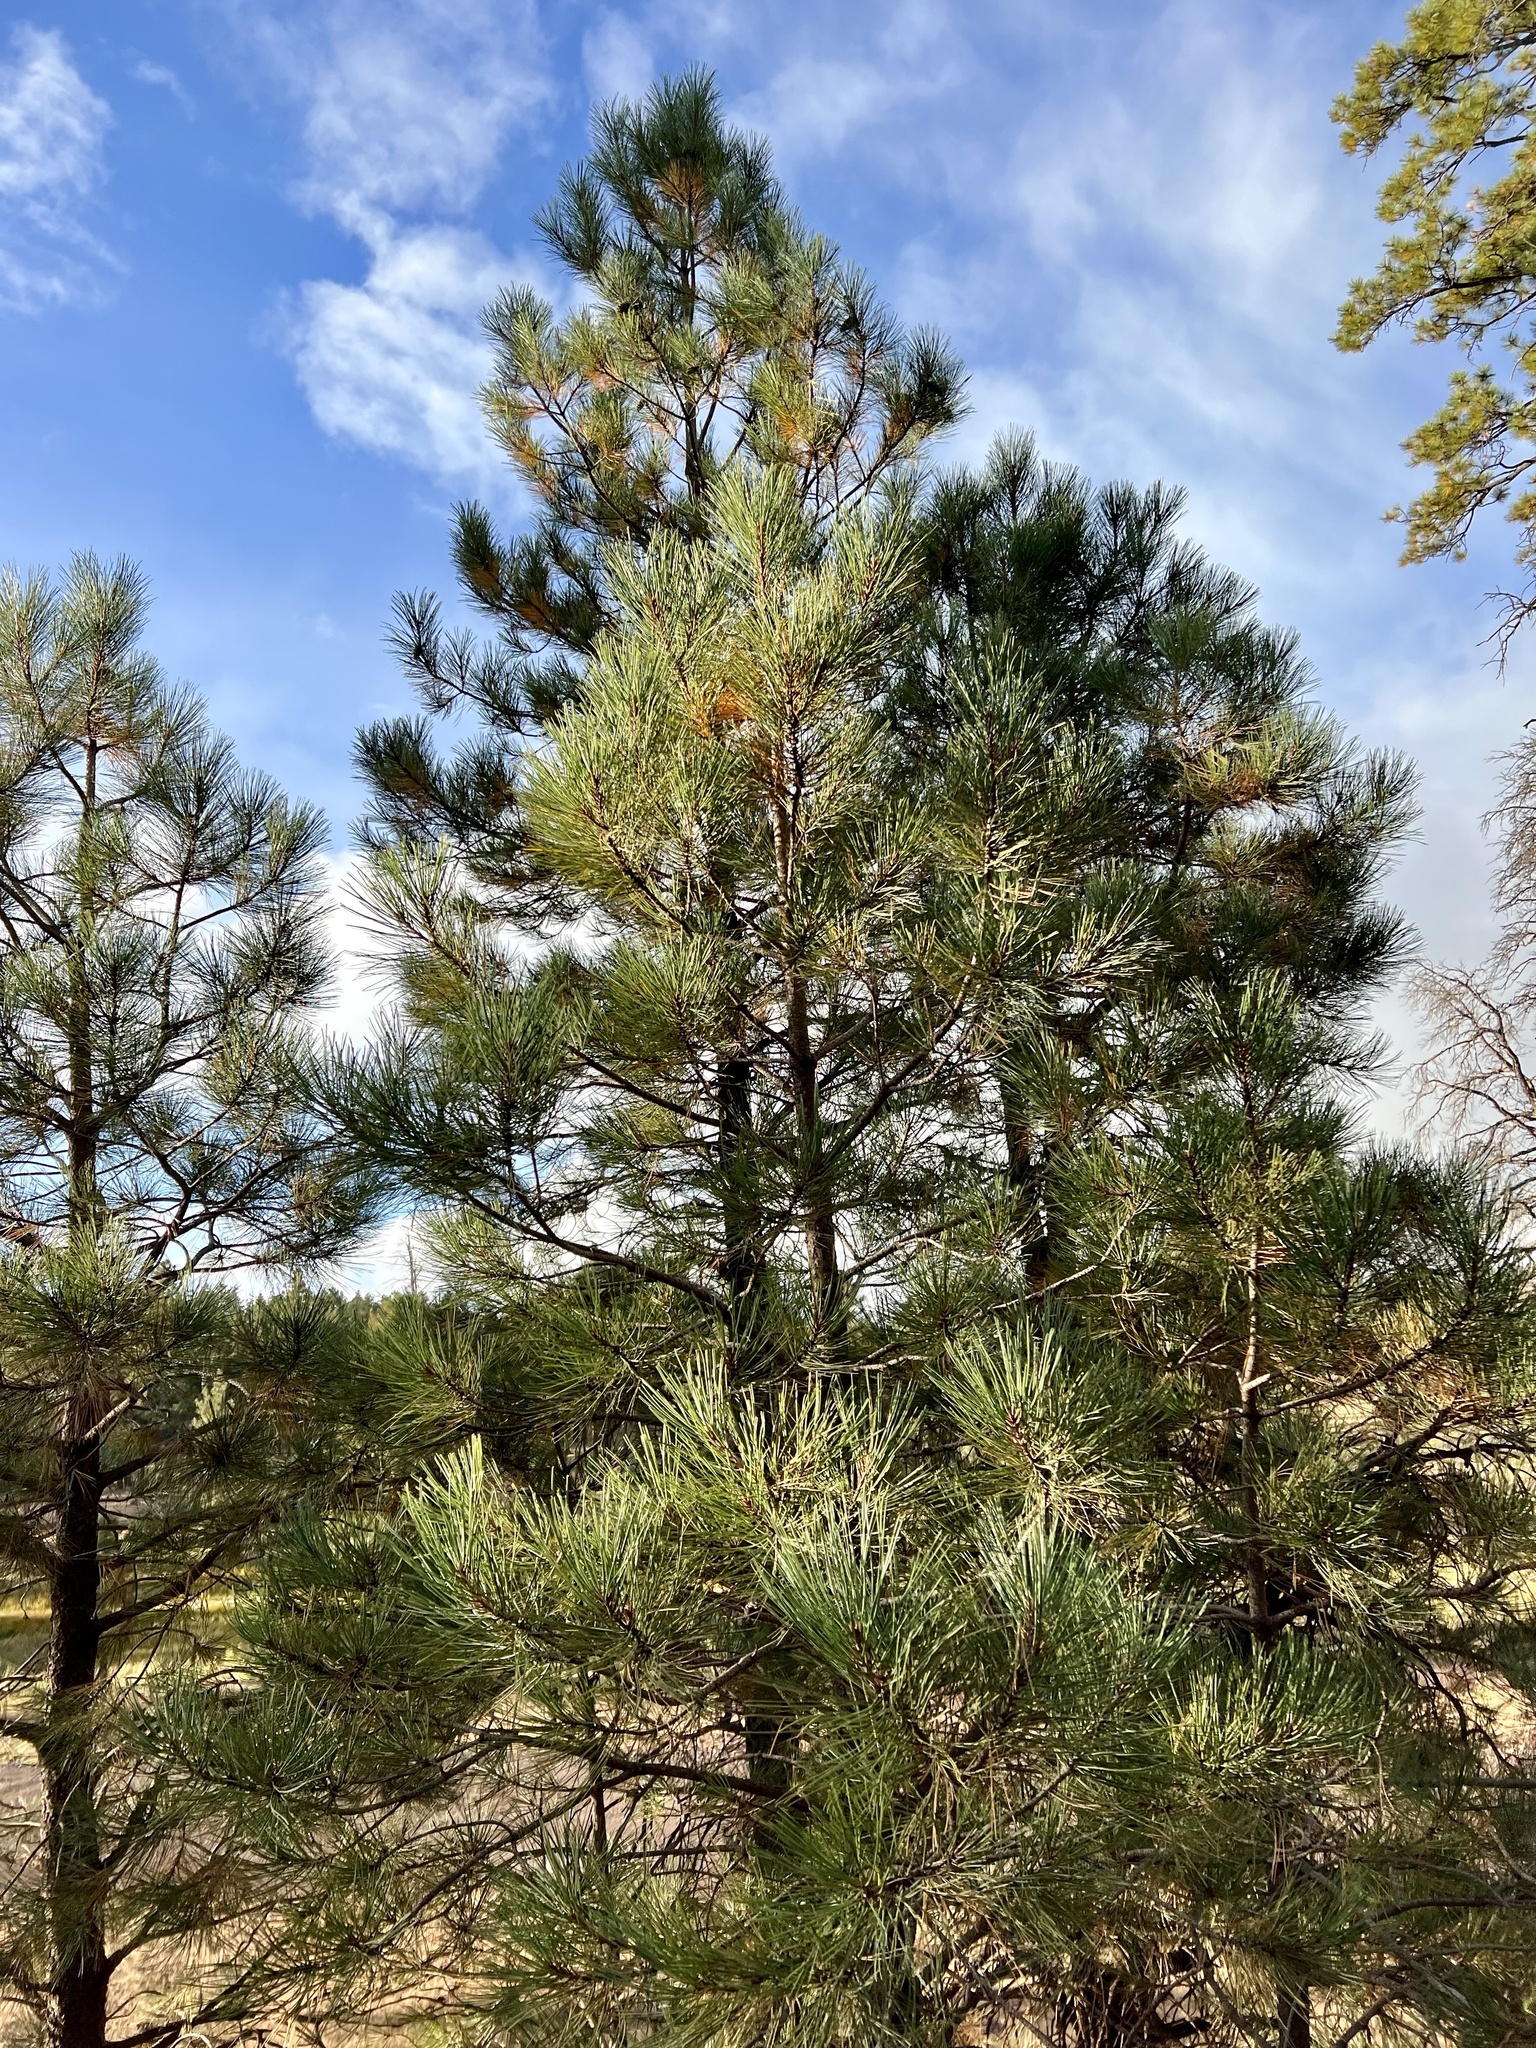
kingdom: Plantae
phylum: Tracheophyta
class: Pinopsida
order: Pinales
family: Pinaceae
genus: Pinus
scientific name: Pinus ponderosa
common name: Western yellow-pine
